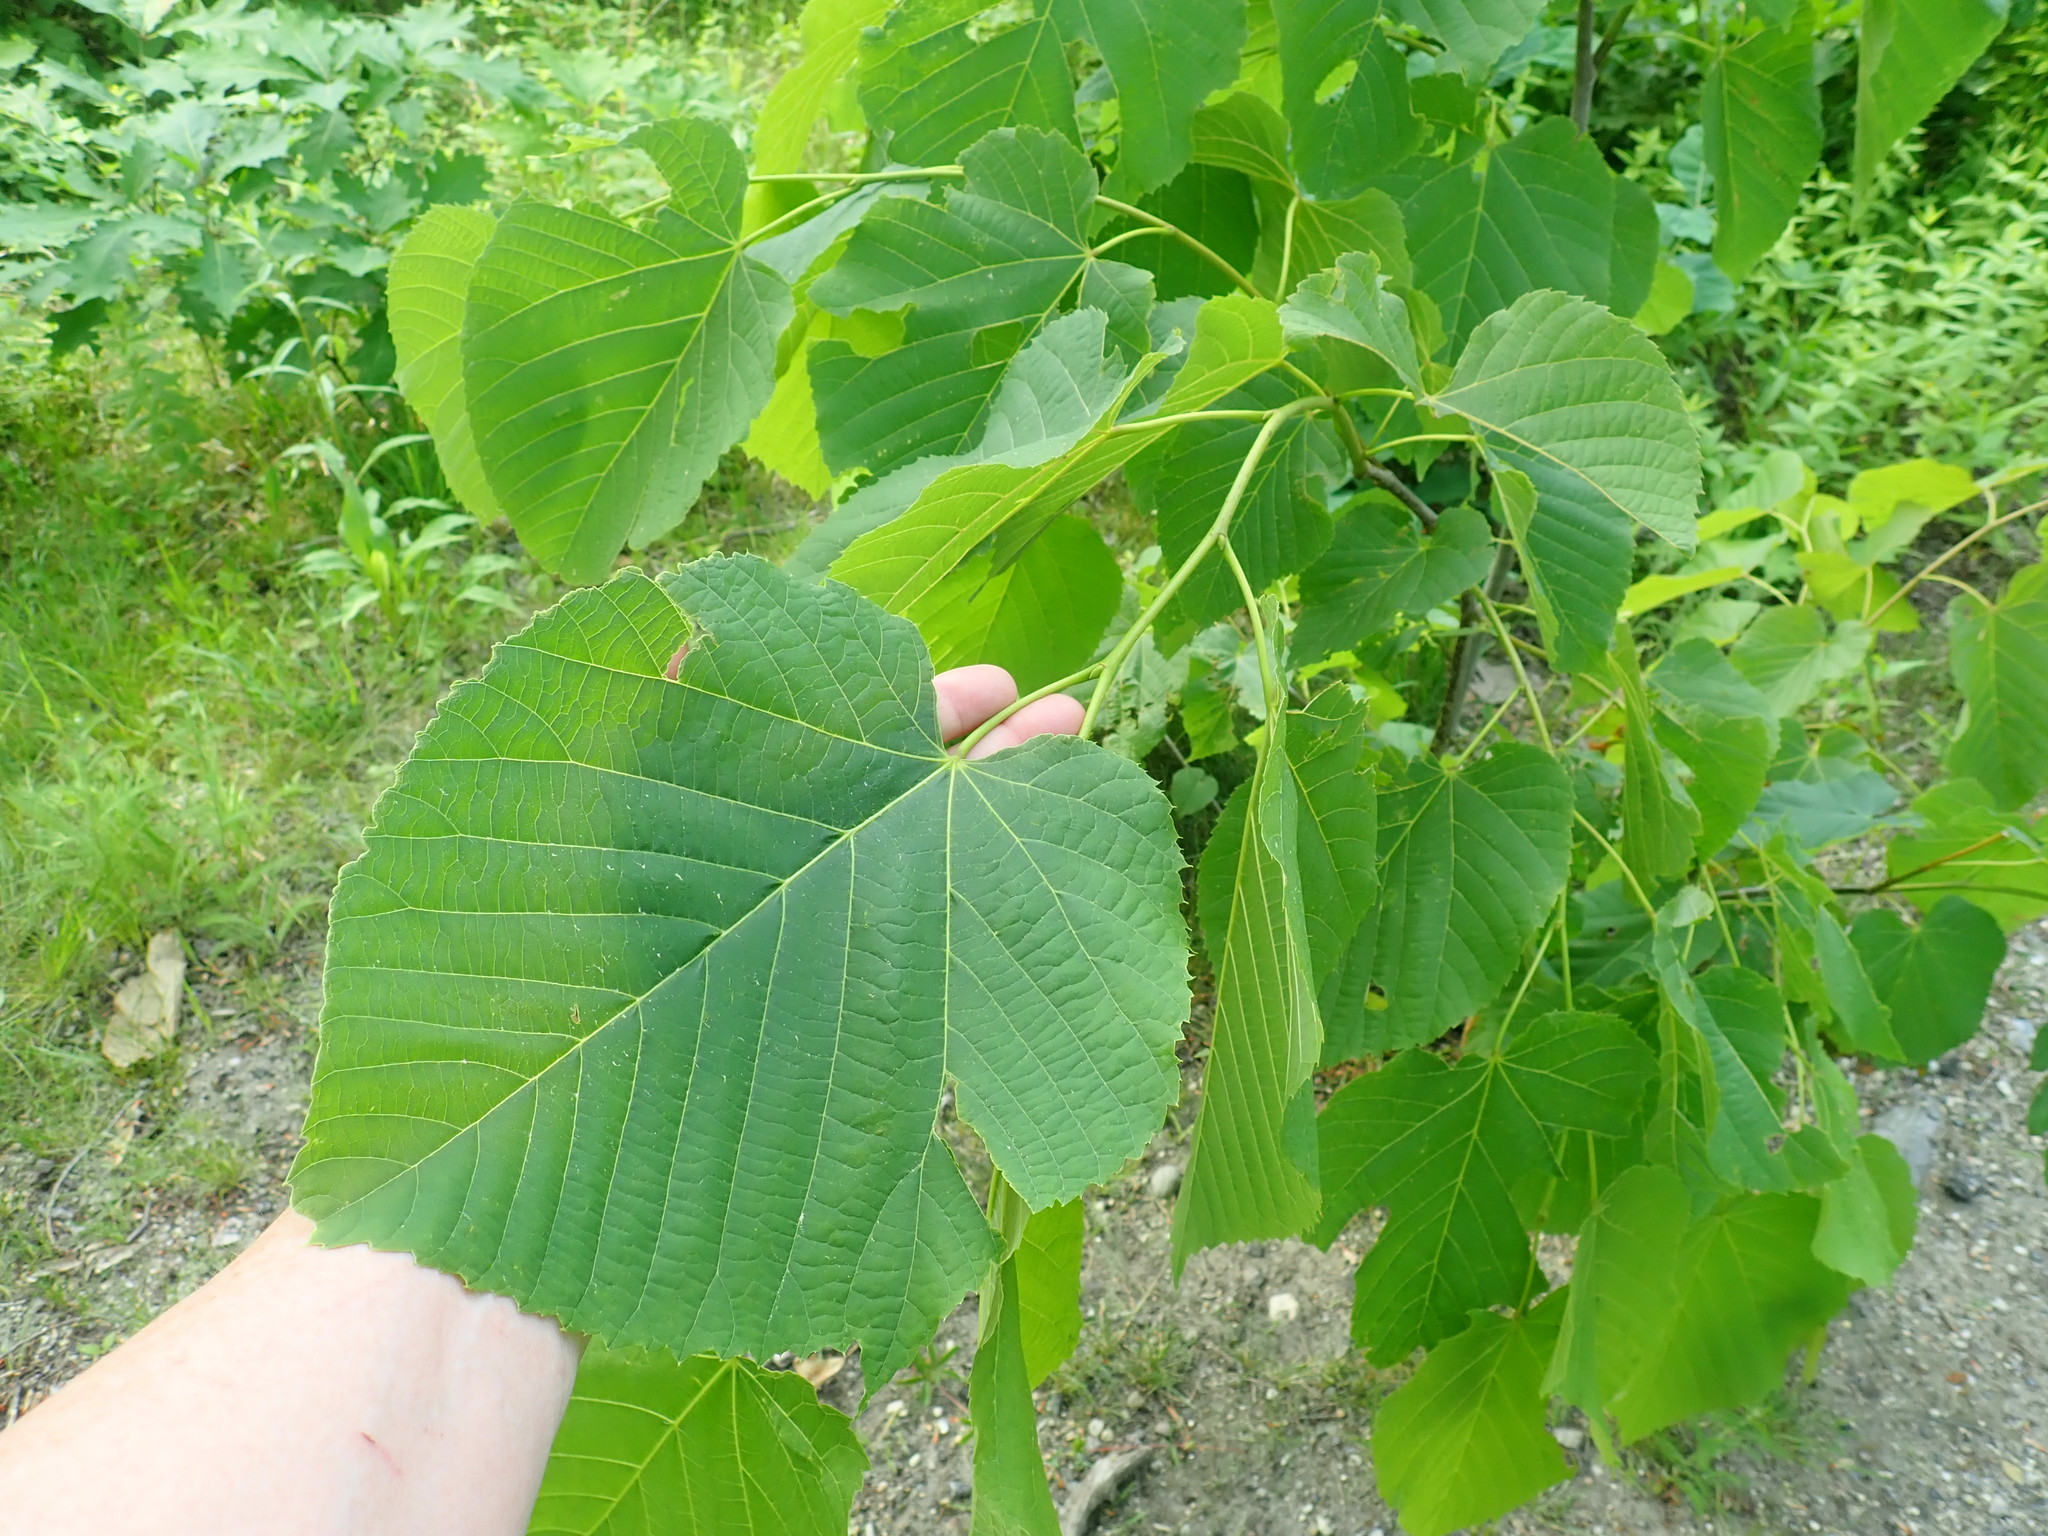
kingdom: Plantae
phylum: Tracheophyta
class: Magnoliopsida
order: Malvales
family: Malvaceae
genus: Tilia
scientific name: Tilia americana
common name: Basswood
